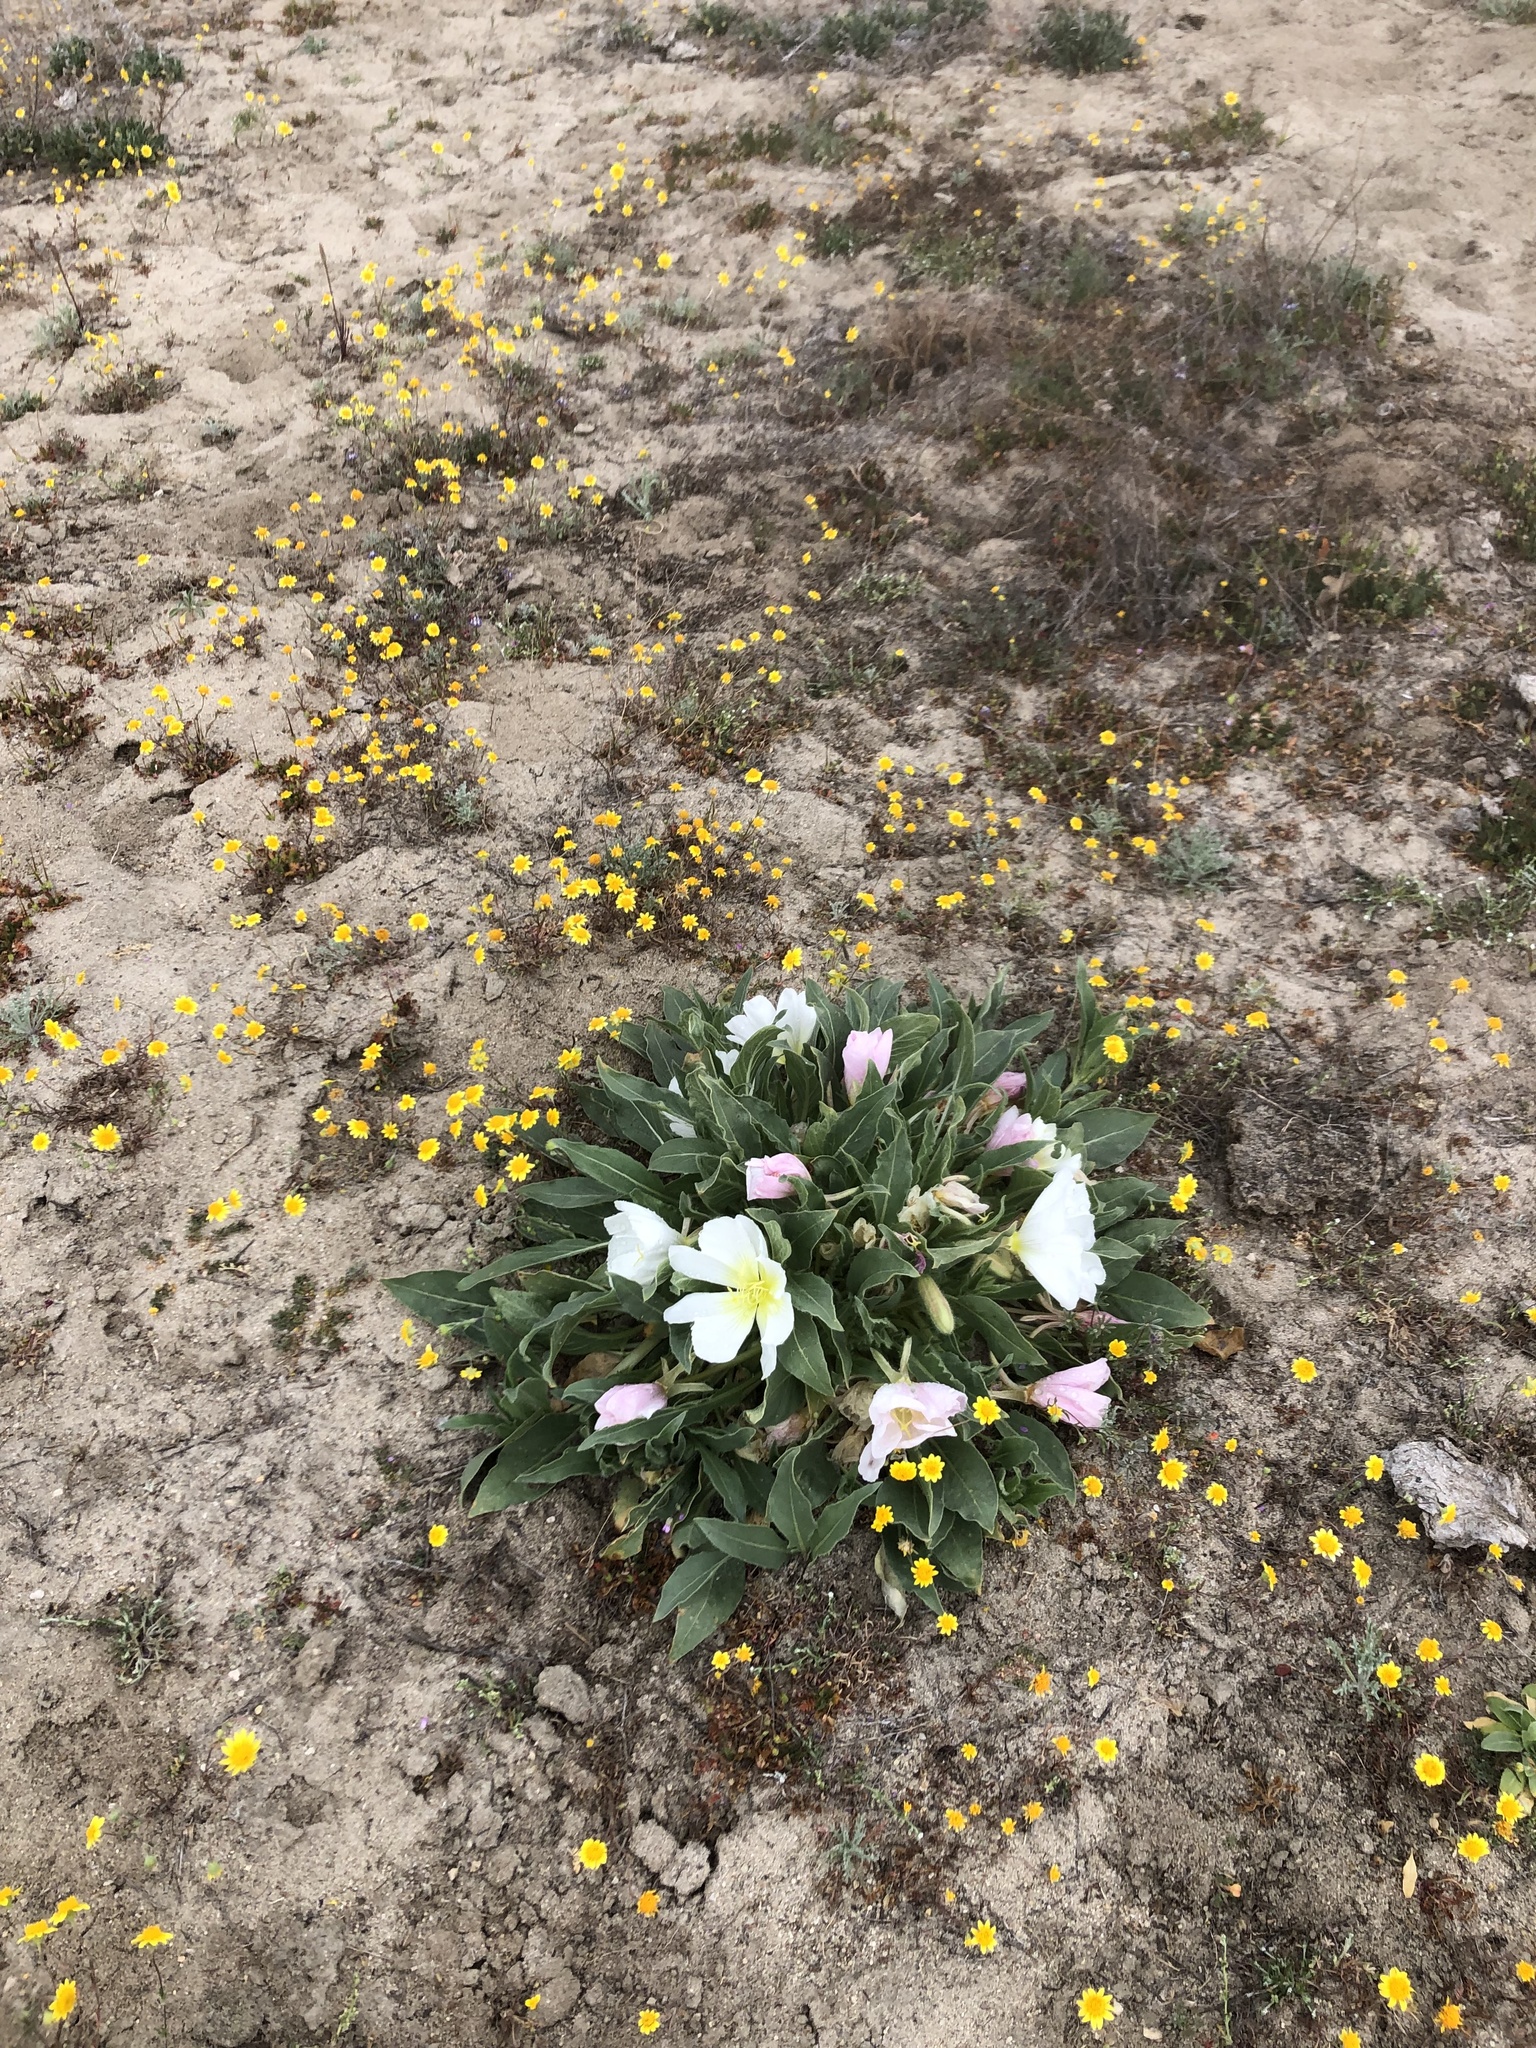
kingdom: Plantae
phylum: Tracheophyta
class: Magnoliopsida
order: Myrtales
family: Onagraceae
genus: Oenothera
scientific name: Oenothera deltoides
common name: Basket evening-primrose
